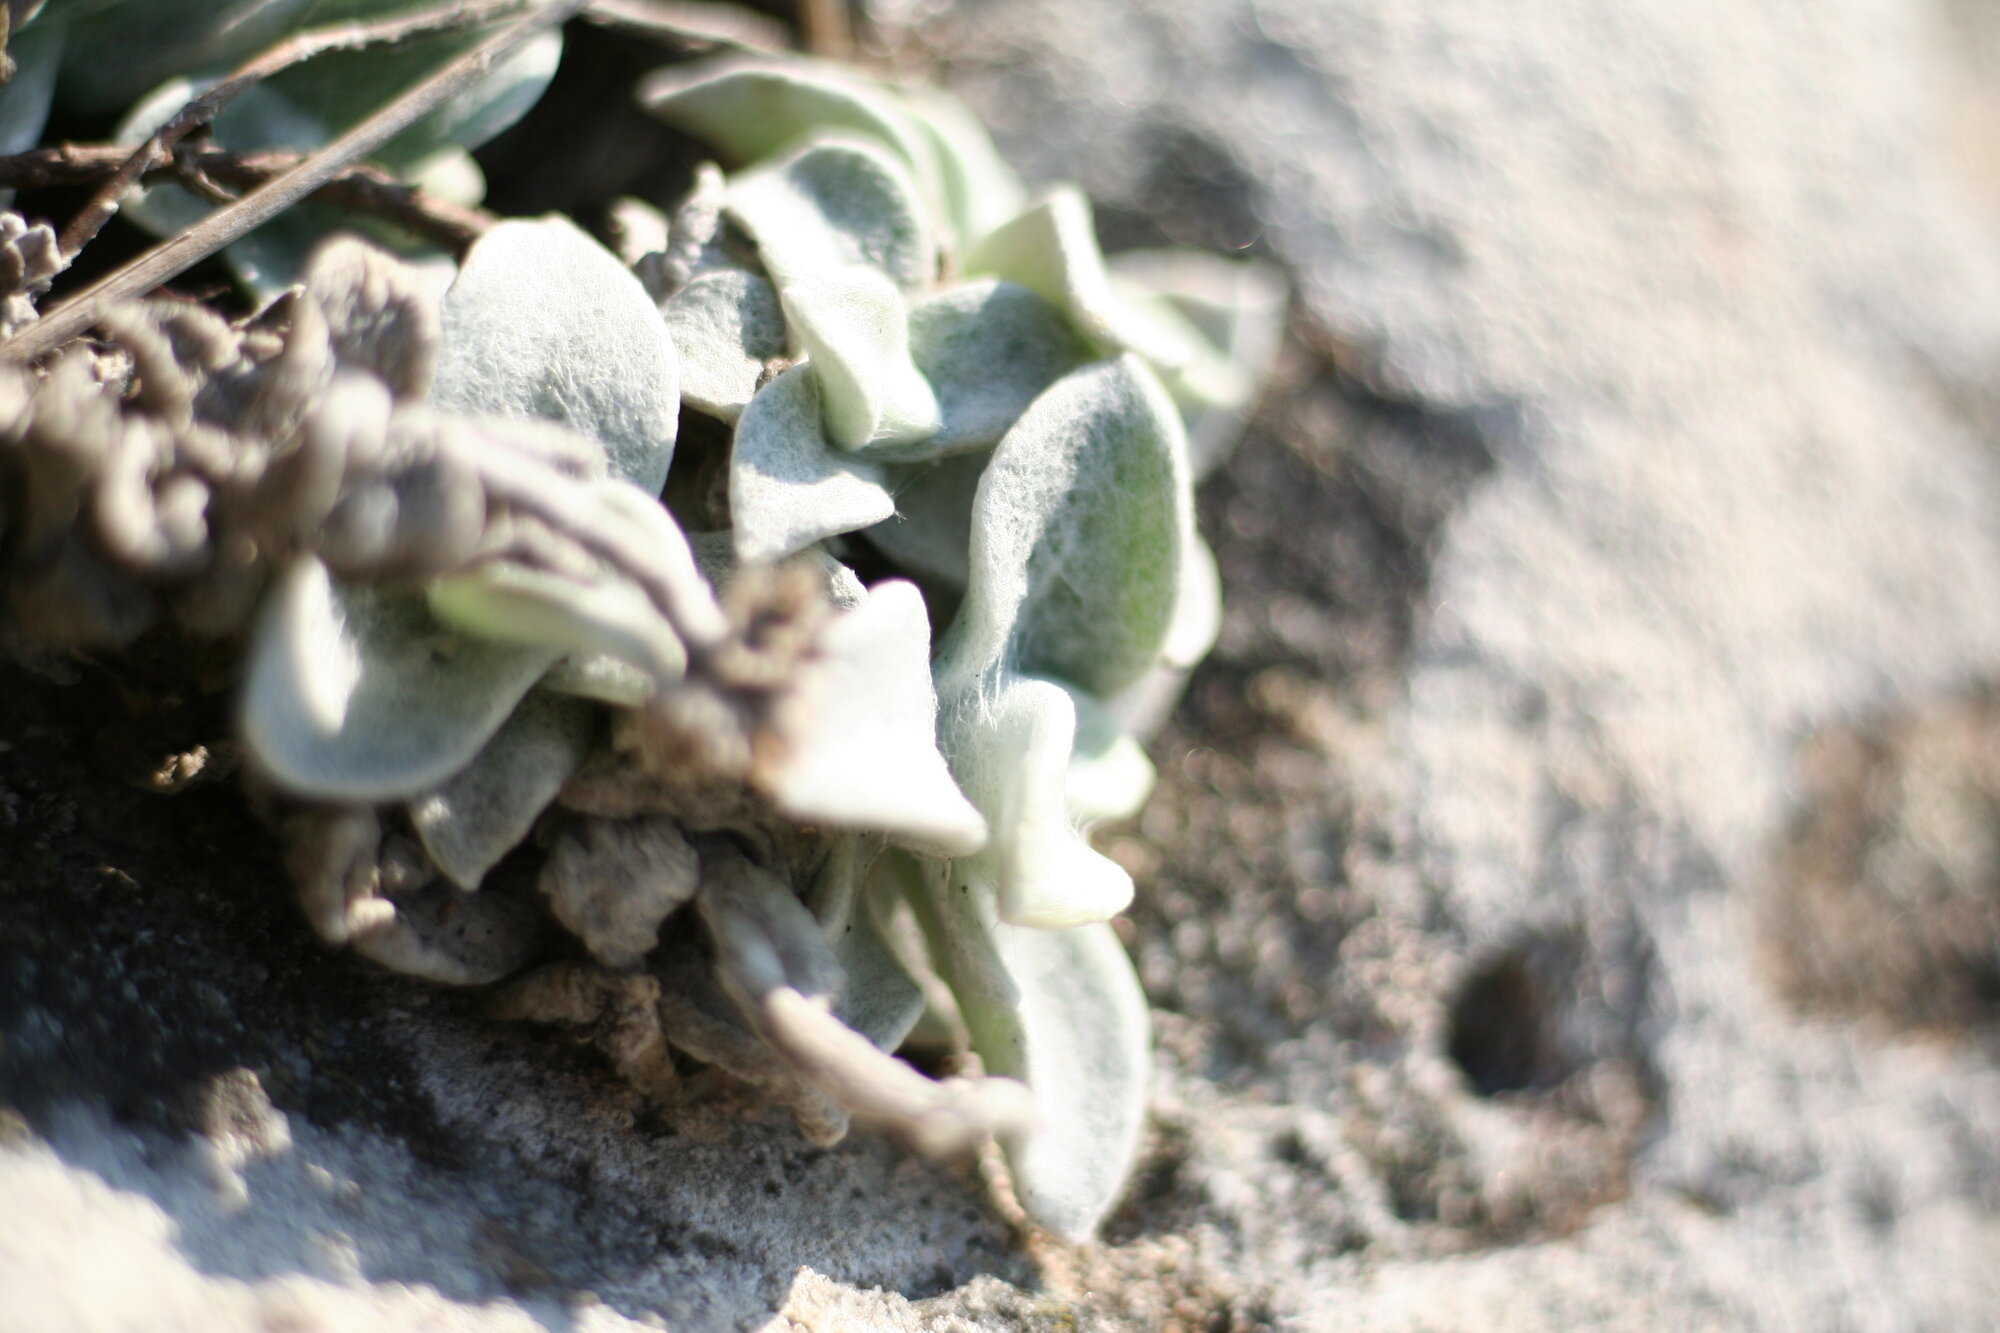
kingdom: Plantae
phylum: Tracheophyta
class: Magnoliopsida
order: Asterales
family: Asteraceae
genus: Helichrysum
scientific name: Helichrysum grandiflorum
